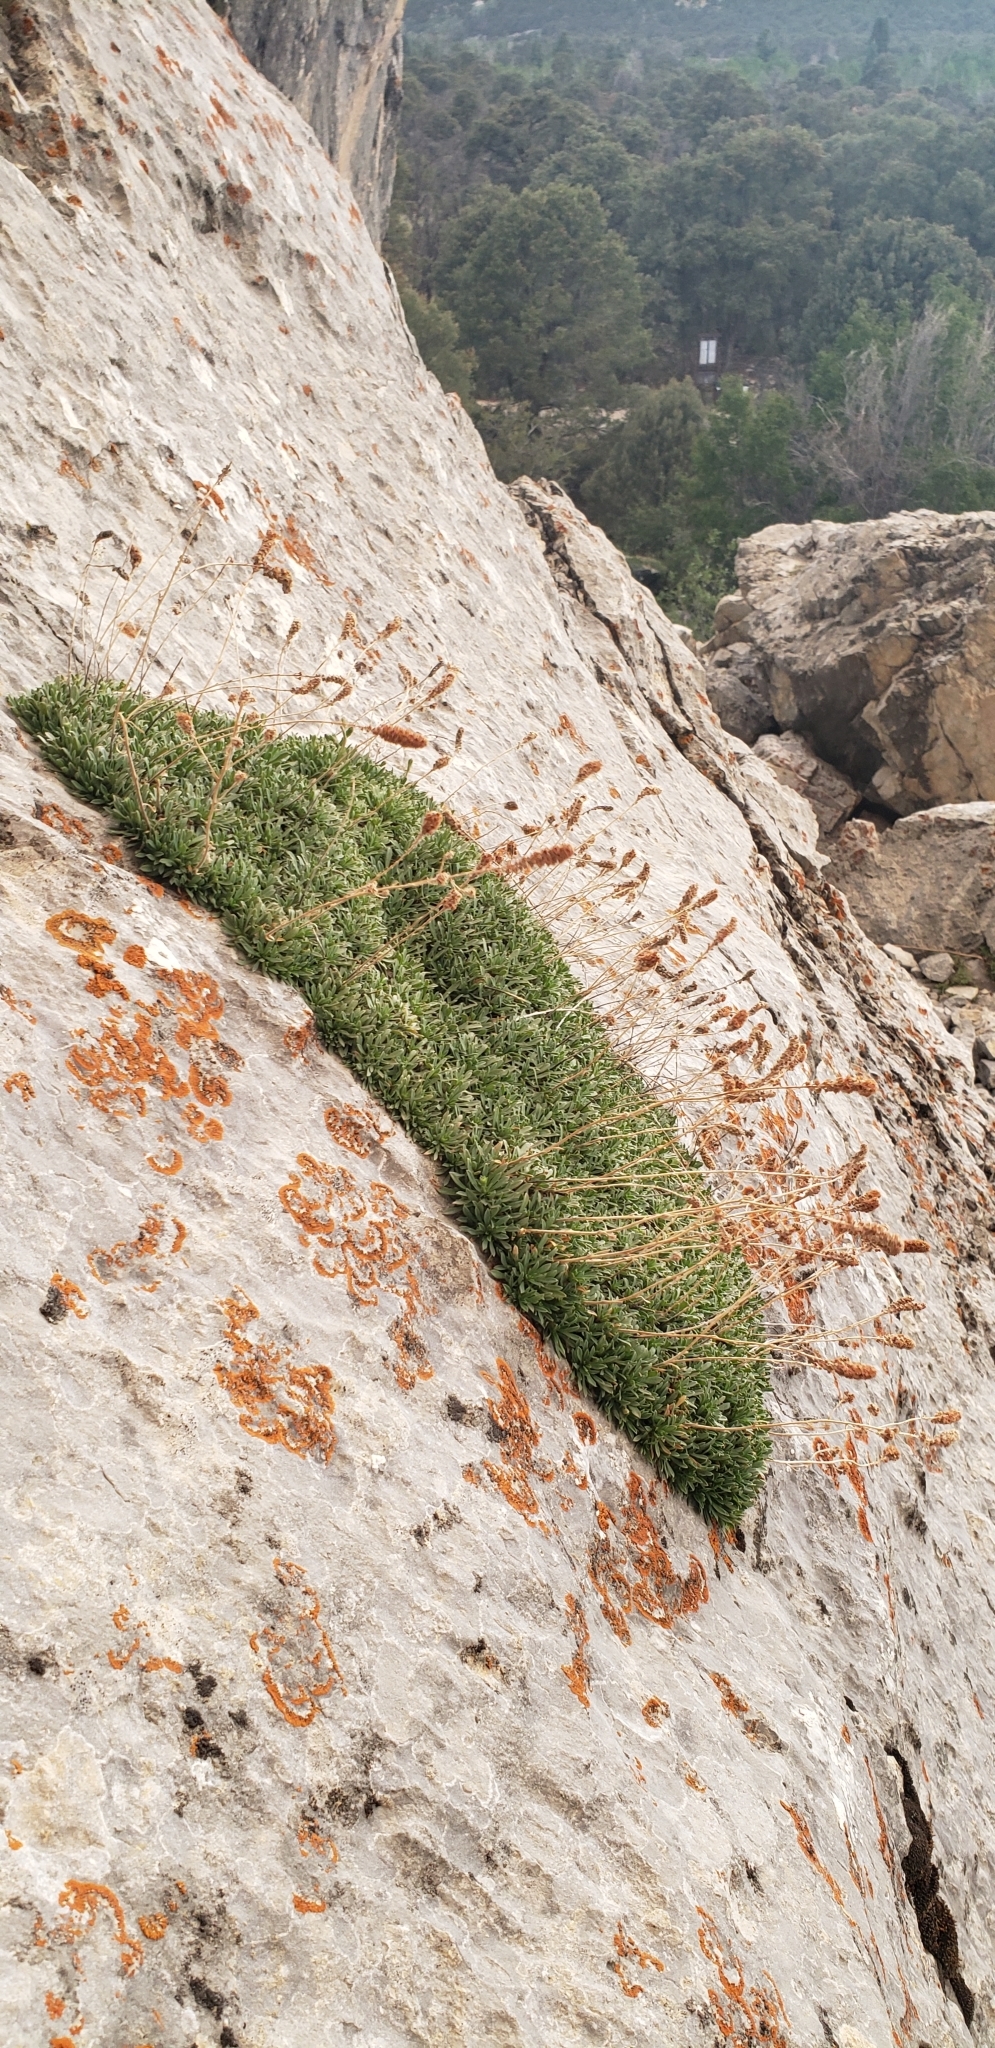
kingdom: Plantae
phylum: Tracheophyta
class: Magnoliopsida
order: Rosales
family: Rosaceae
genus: Petrophytum
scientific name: Petrophytum caespitosum
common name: Mat rockspirea
